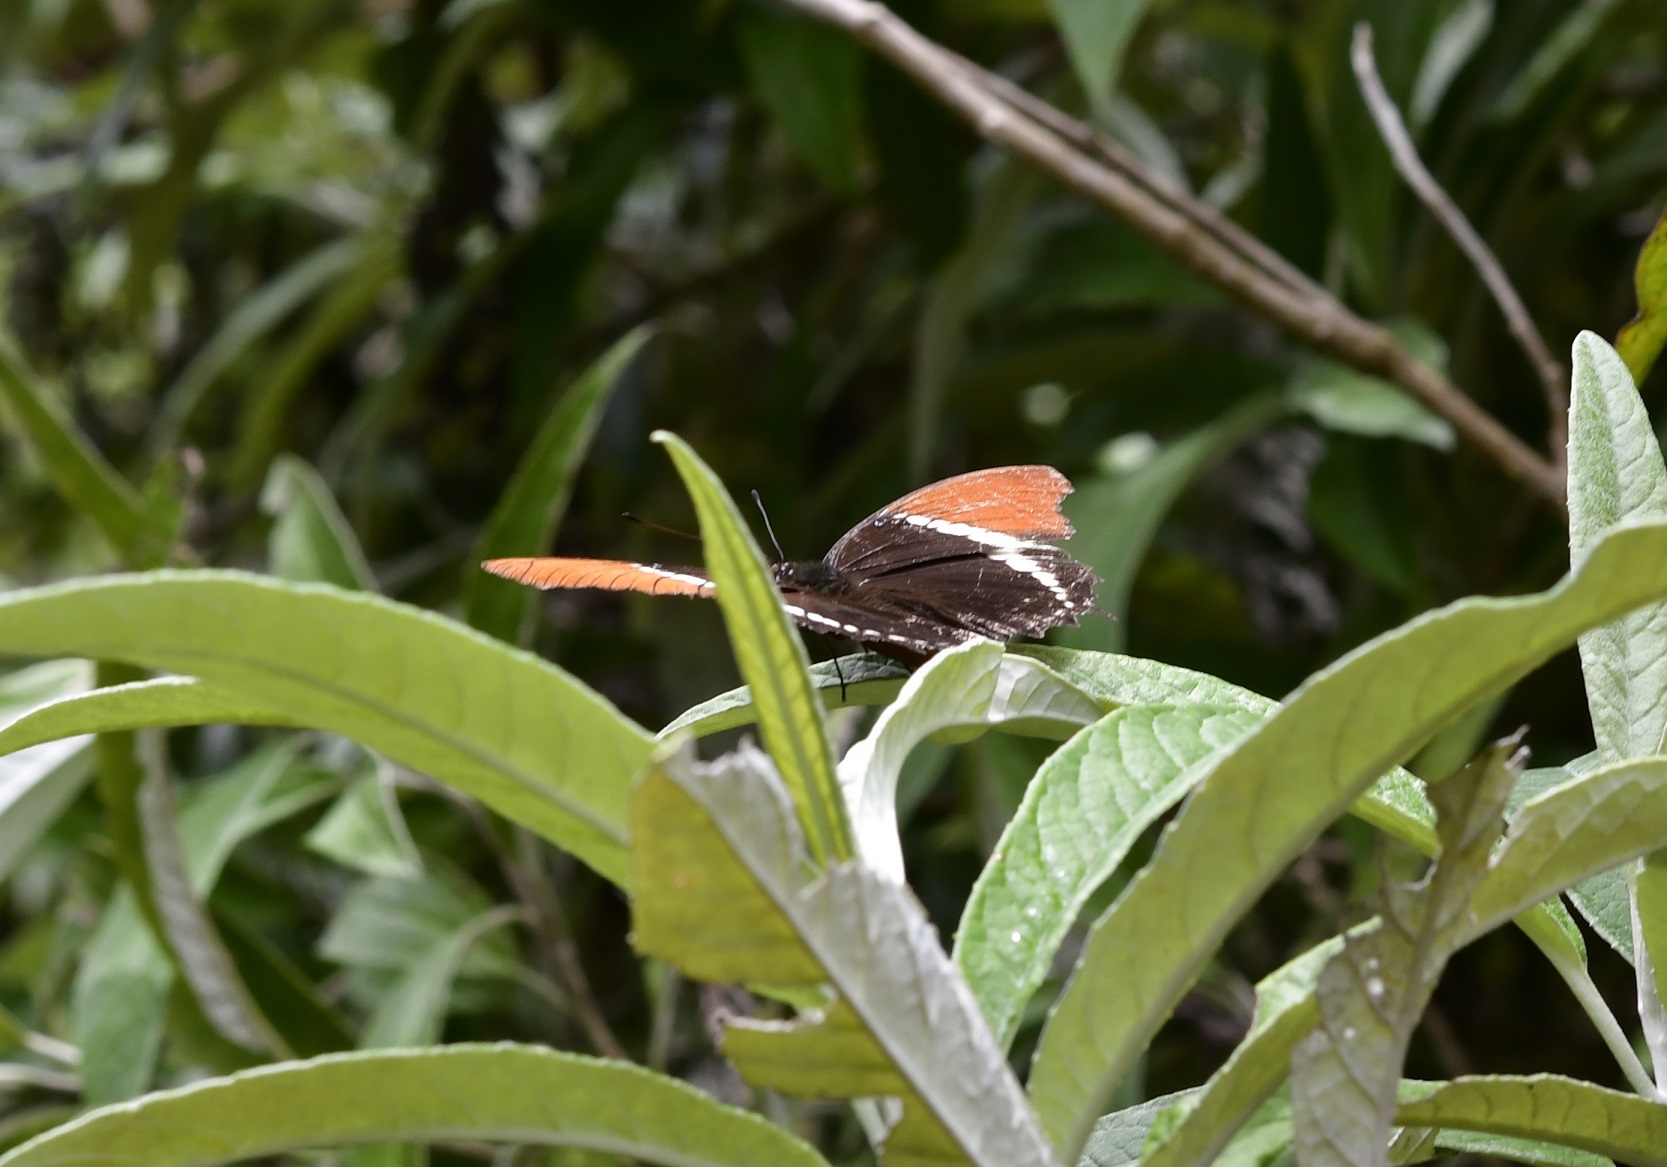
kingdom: Animalia
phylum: Arthropoda
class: Insecta
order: Lepidoptera
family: Nymphalidae
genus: Siproeta
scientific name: Siproeta epaphus
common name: Rusty-tipped page
